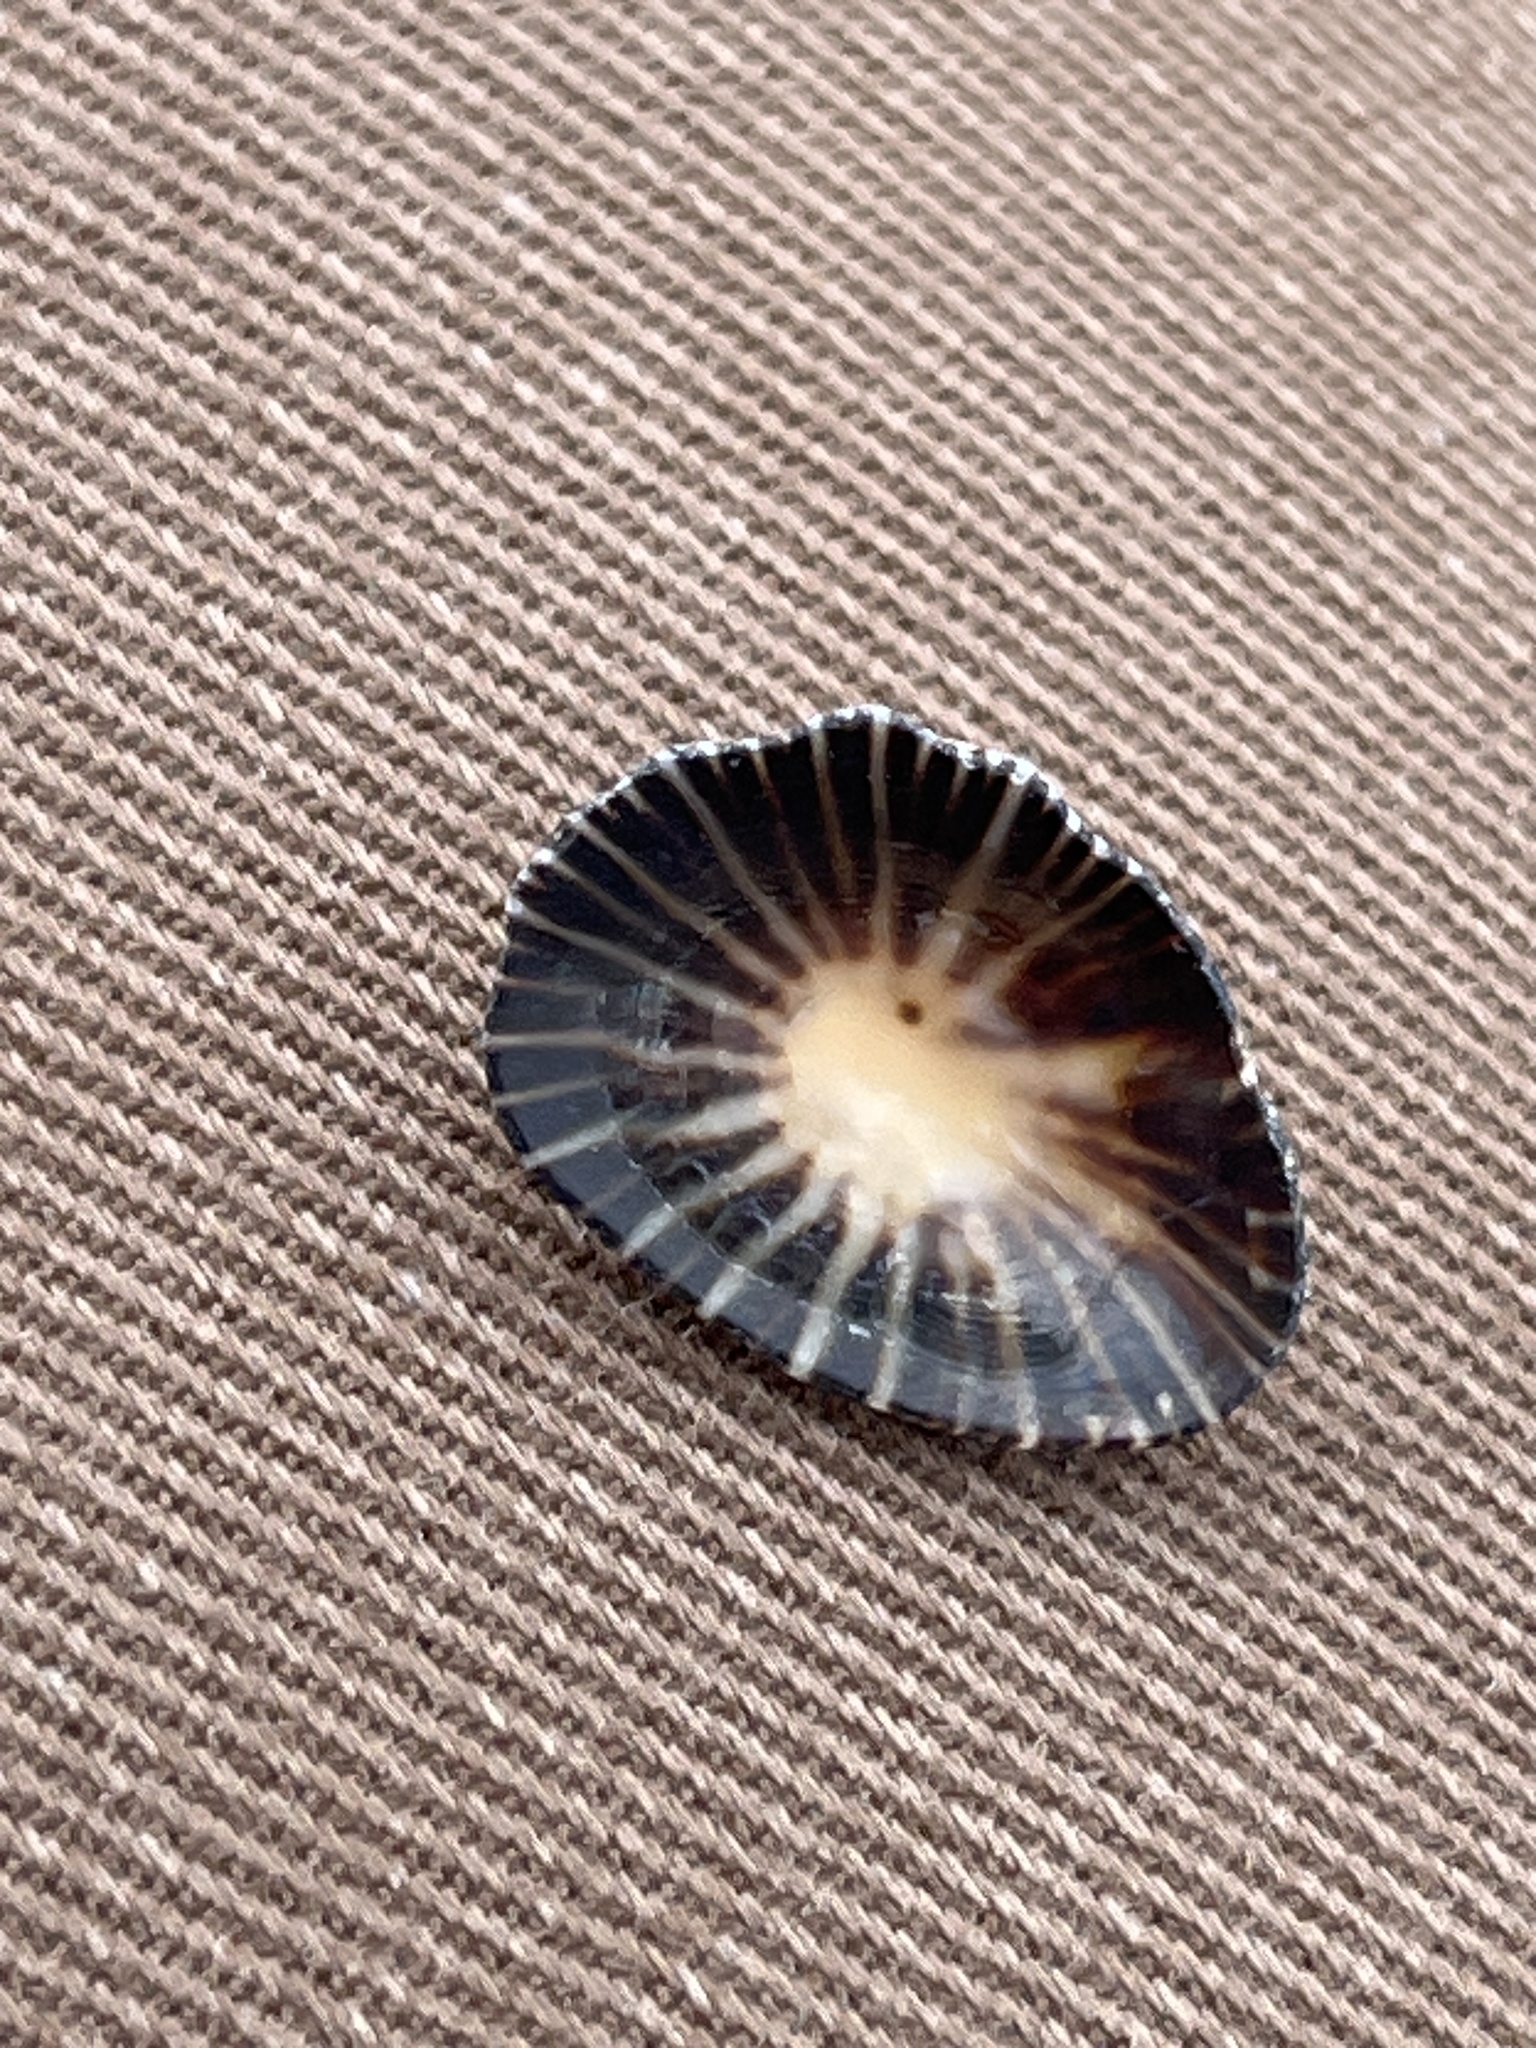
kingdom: Animalia
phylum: Mollusca
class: Gastropoda
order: Siphonariida
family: Siphonariidae
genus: Siphonaria
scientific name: Siphonaria pectinata
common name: Striped false limpet
